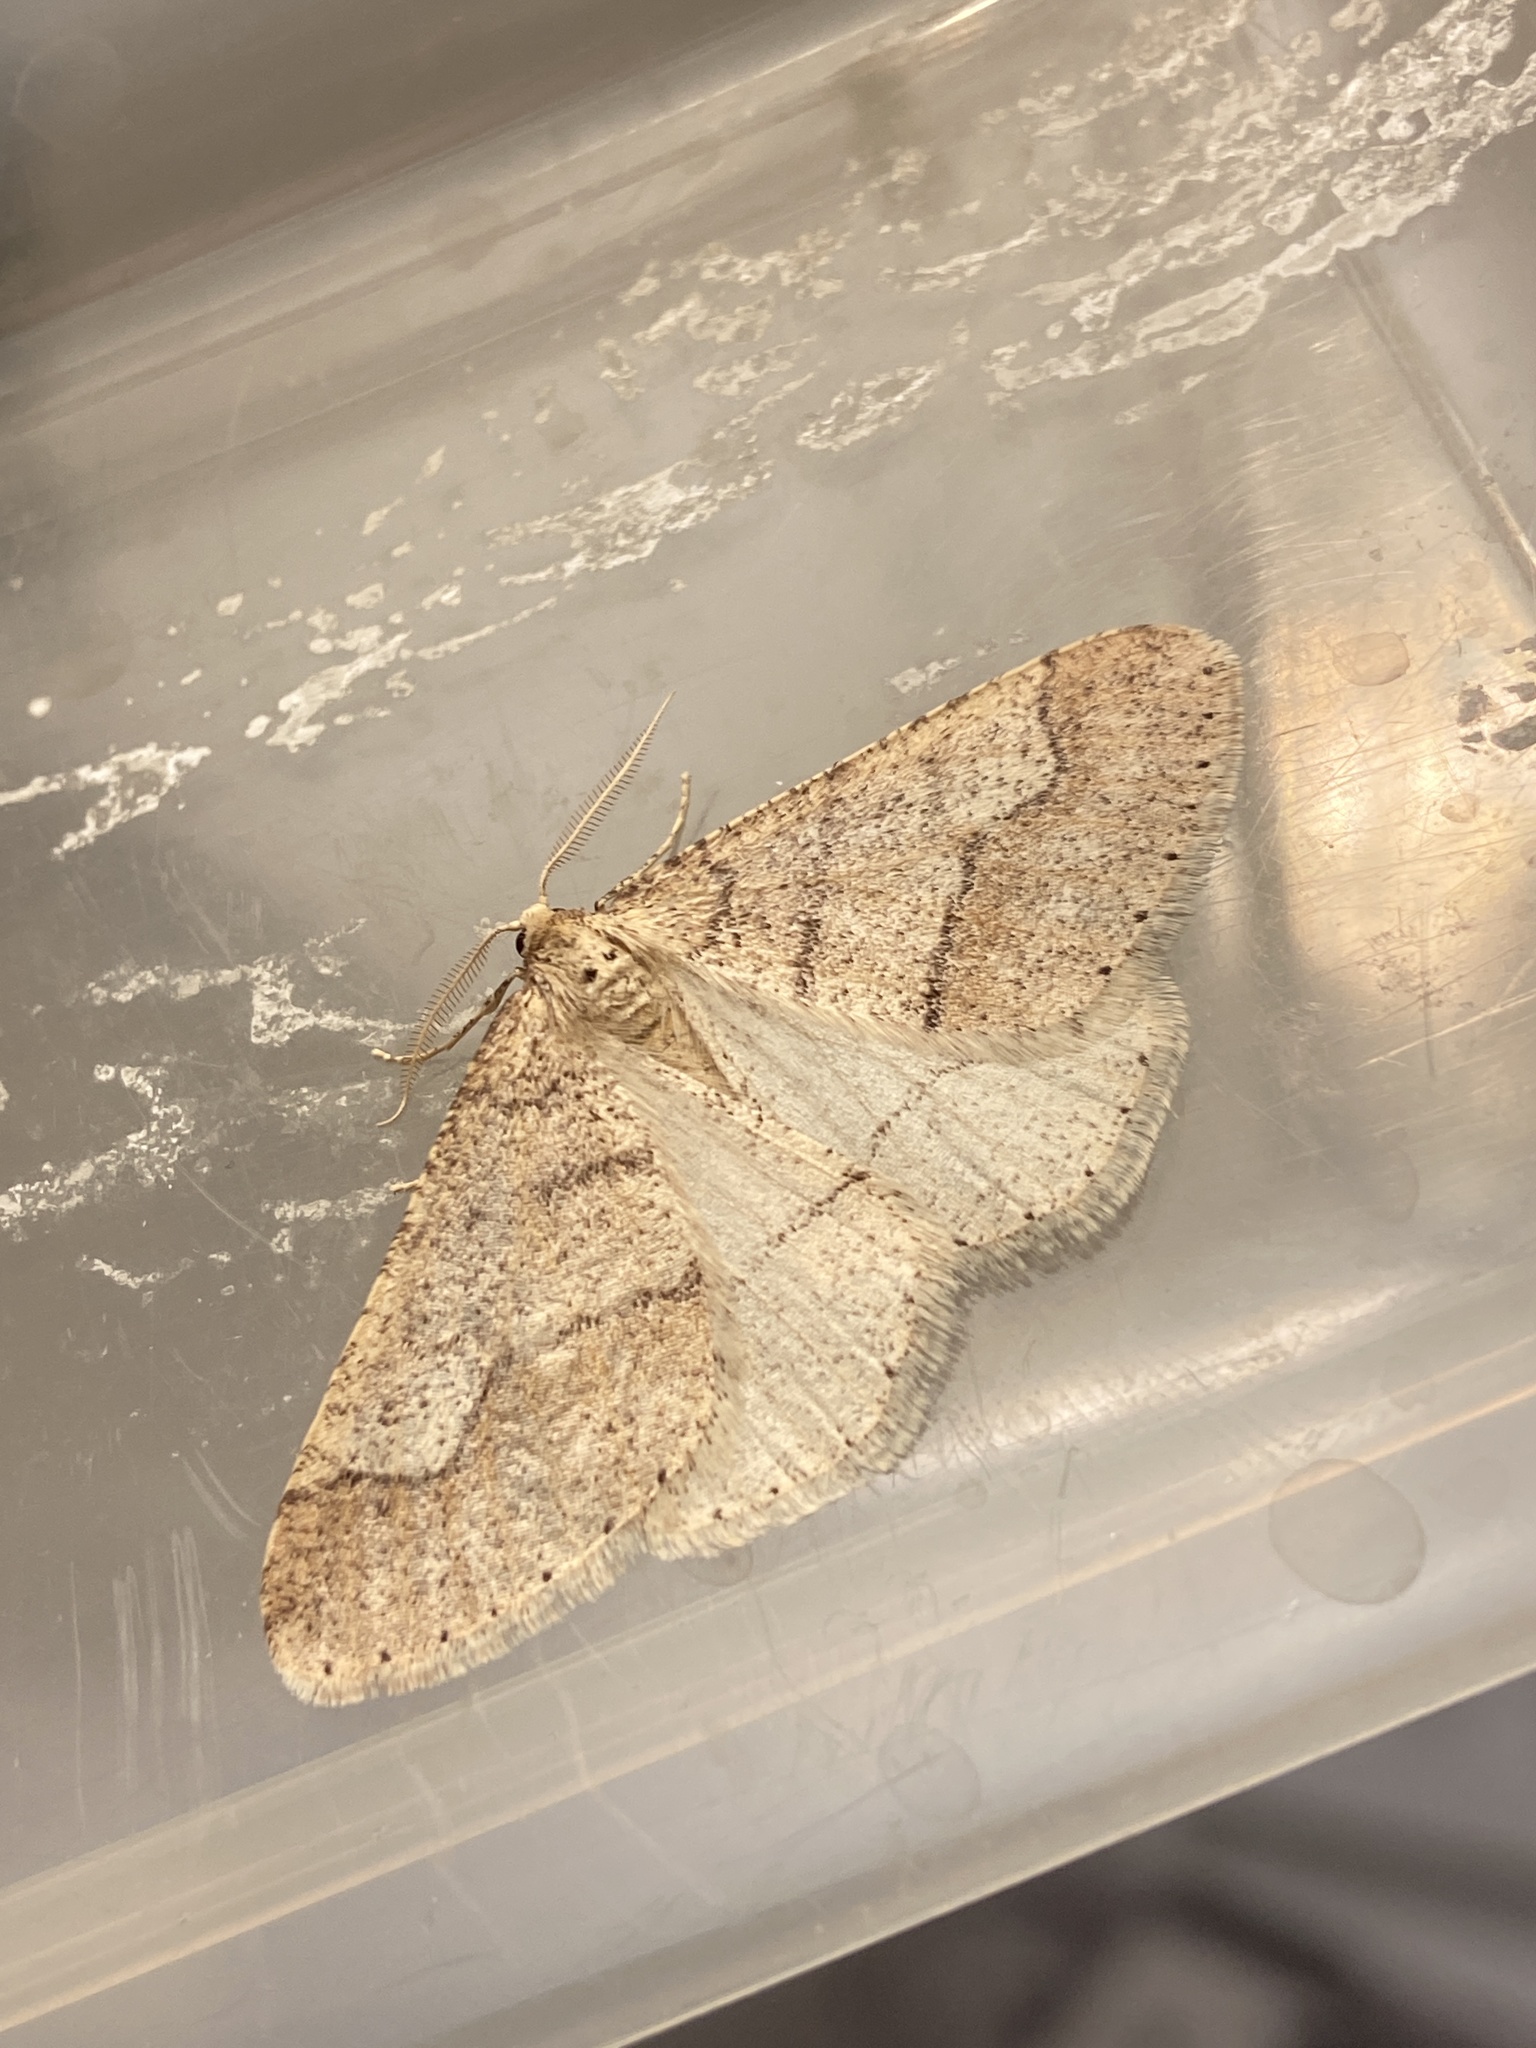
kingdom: Animalia
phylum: Arthropoda
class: Insecta
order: Lepidoptera
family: Geometridae
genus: Agriopis
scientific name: Agriopis marginaria
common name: Dotted border
